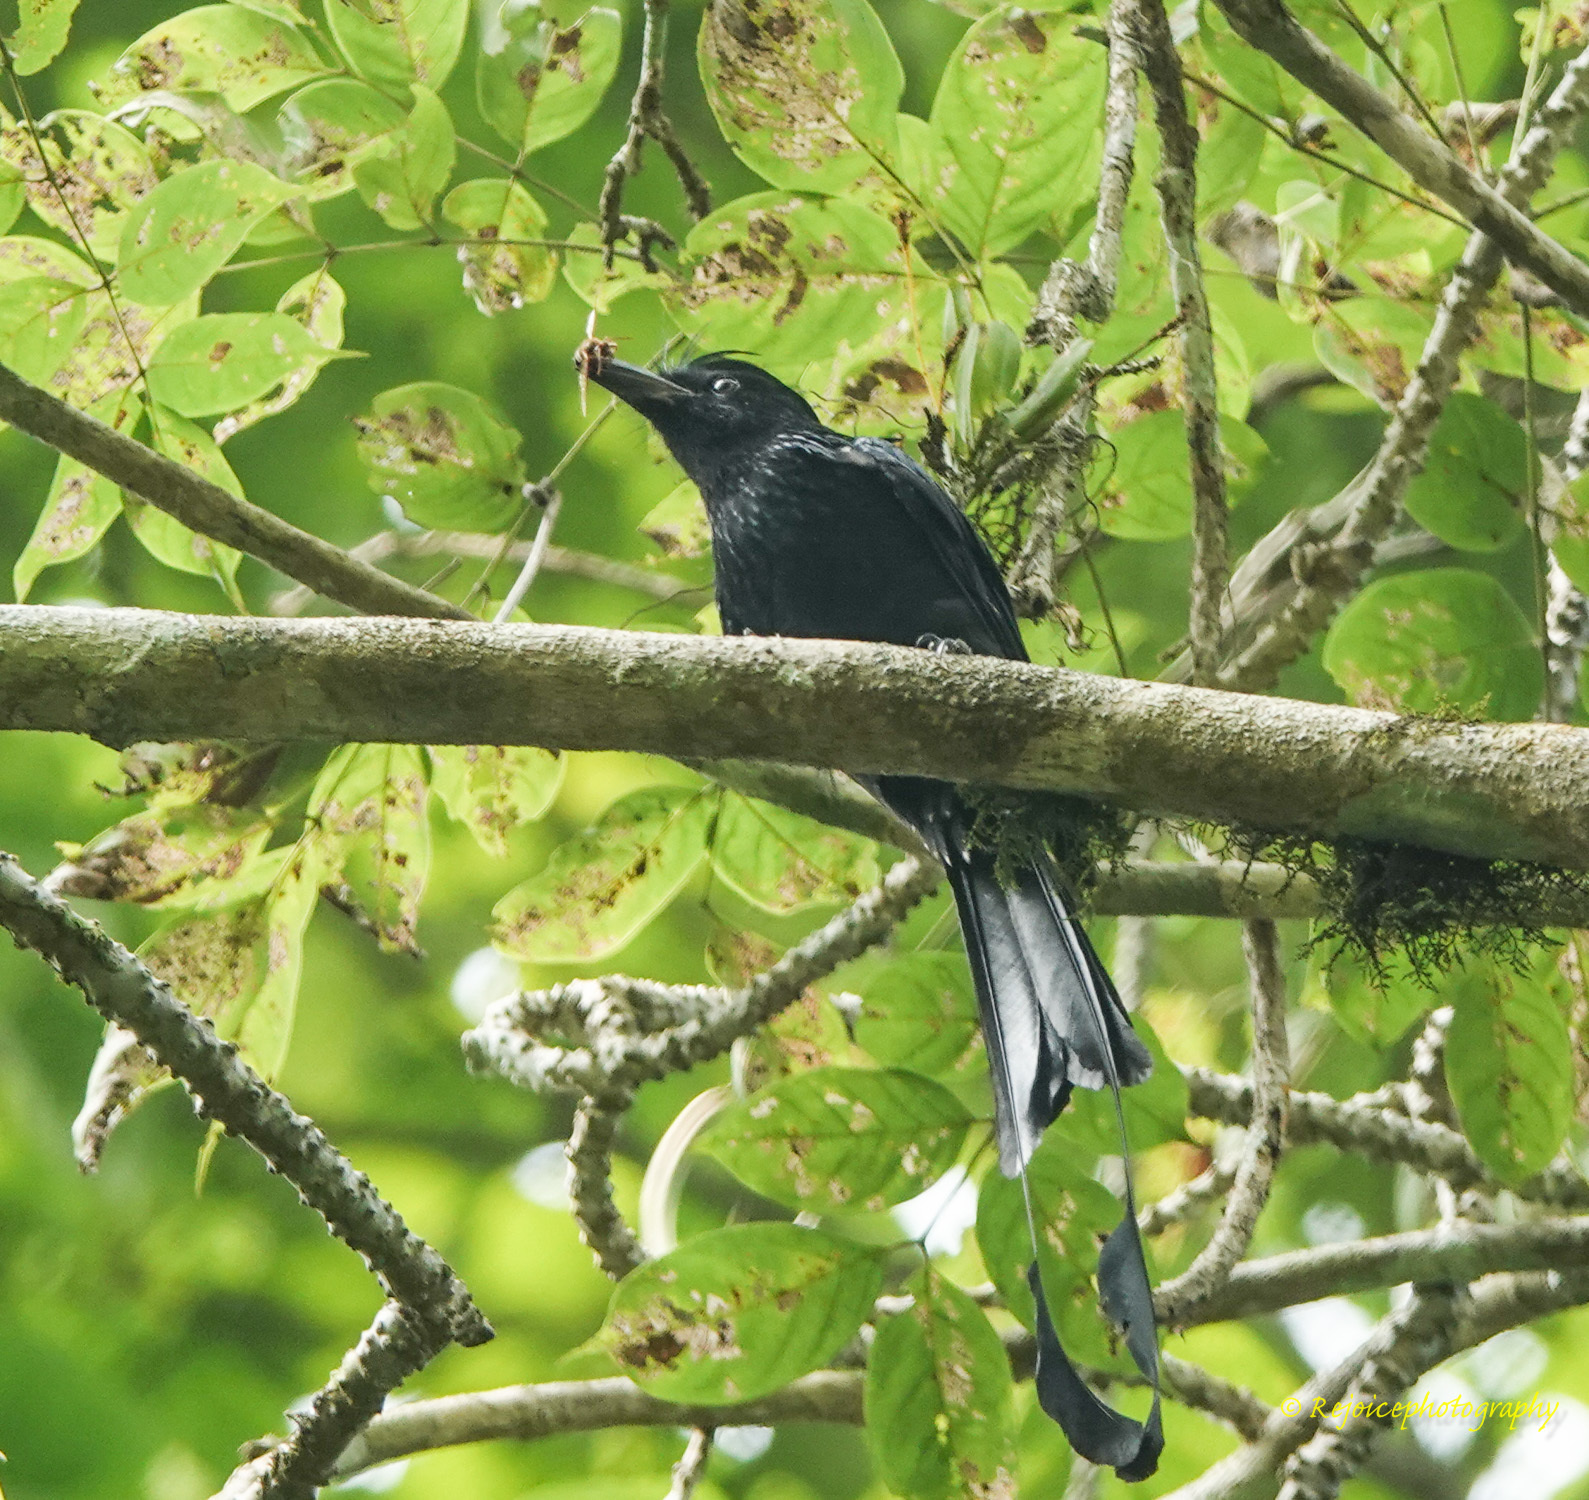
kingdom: Animalia
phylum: Chordata
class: Aves
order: Passeriformes
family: Dicruridae
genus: Dicrurus
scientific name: Dicrurus paradiseus
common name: Greater racket-tailed drongo
